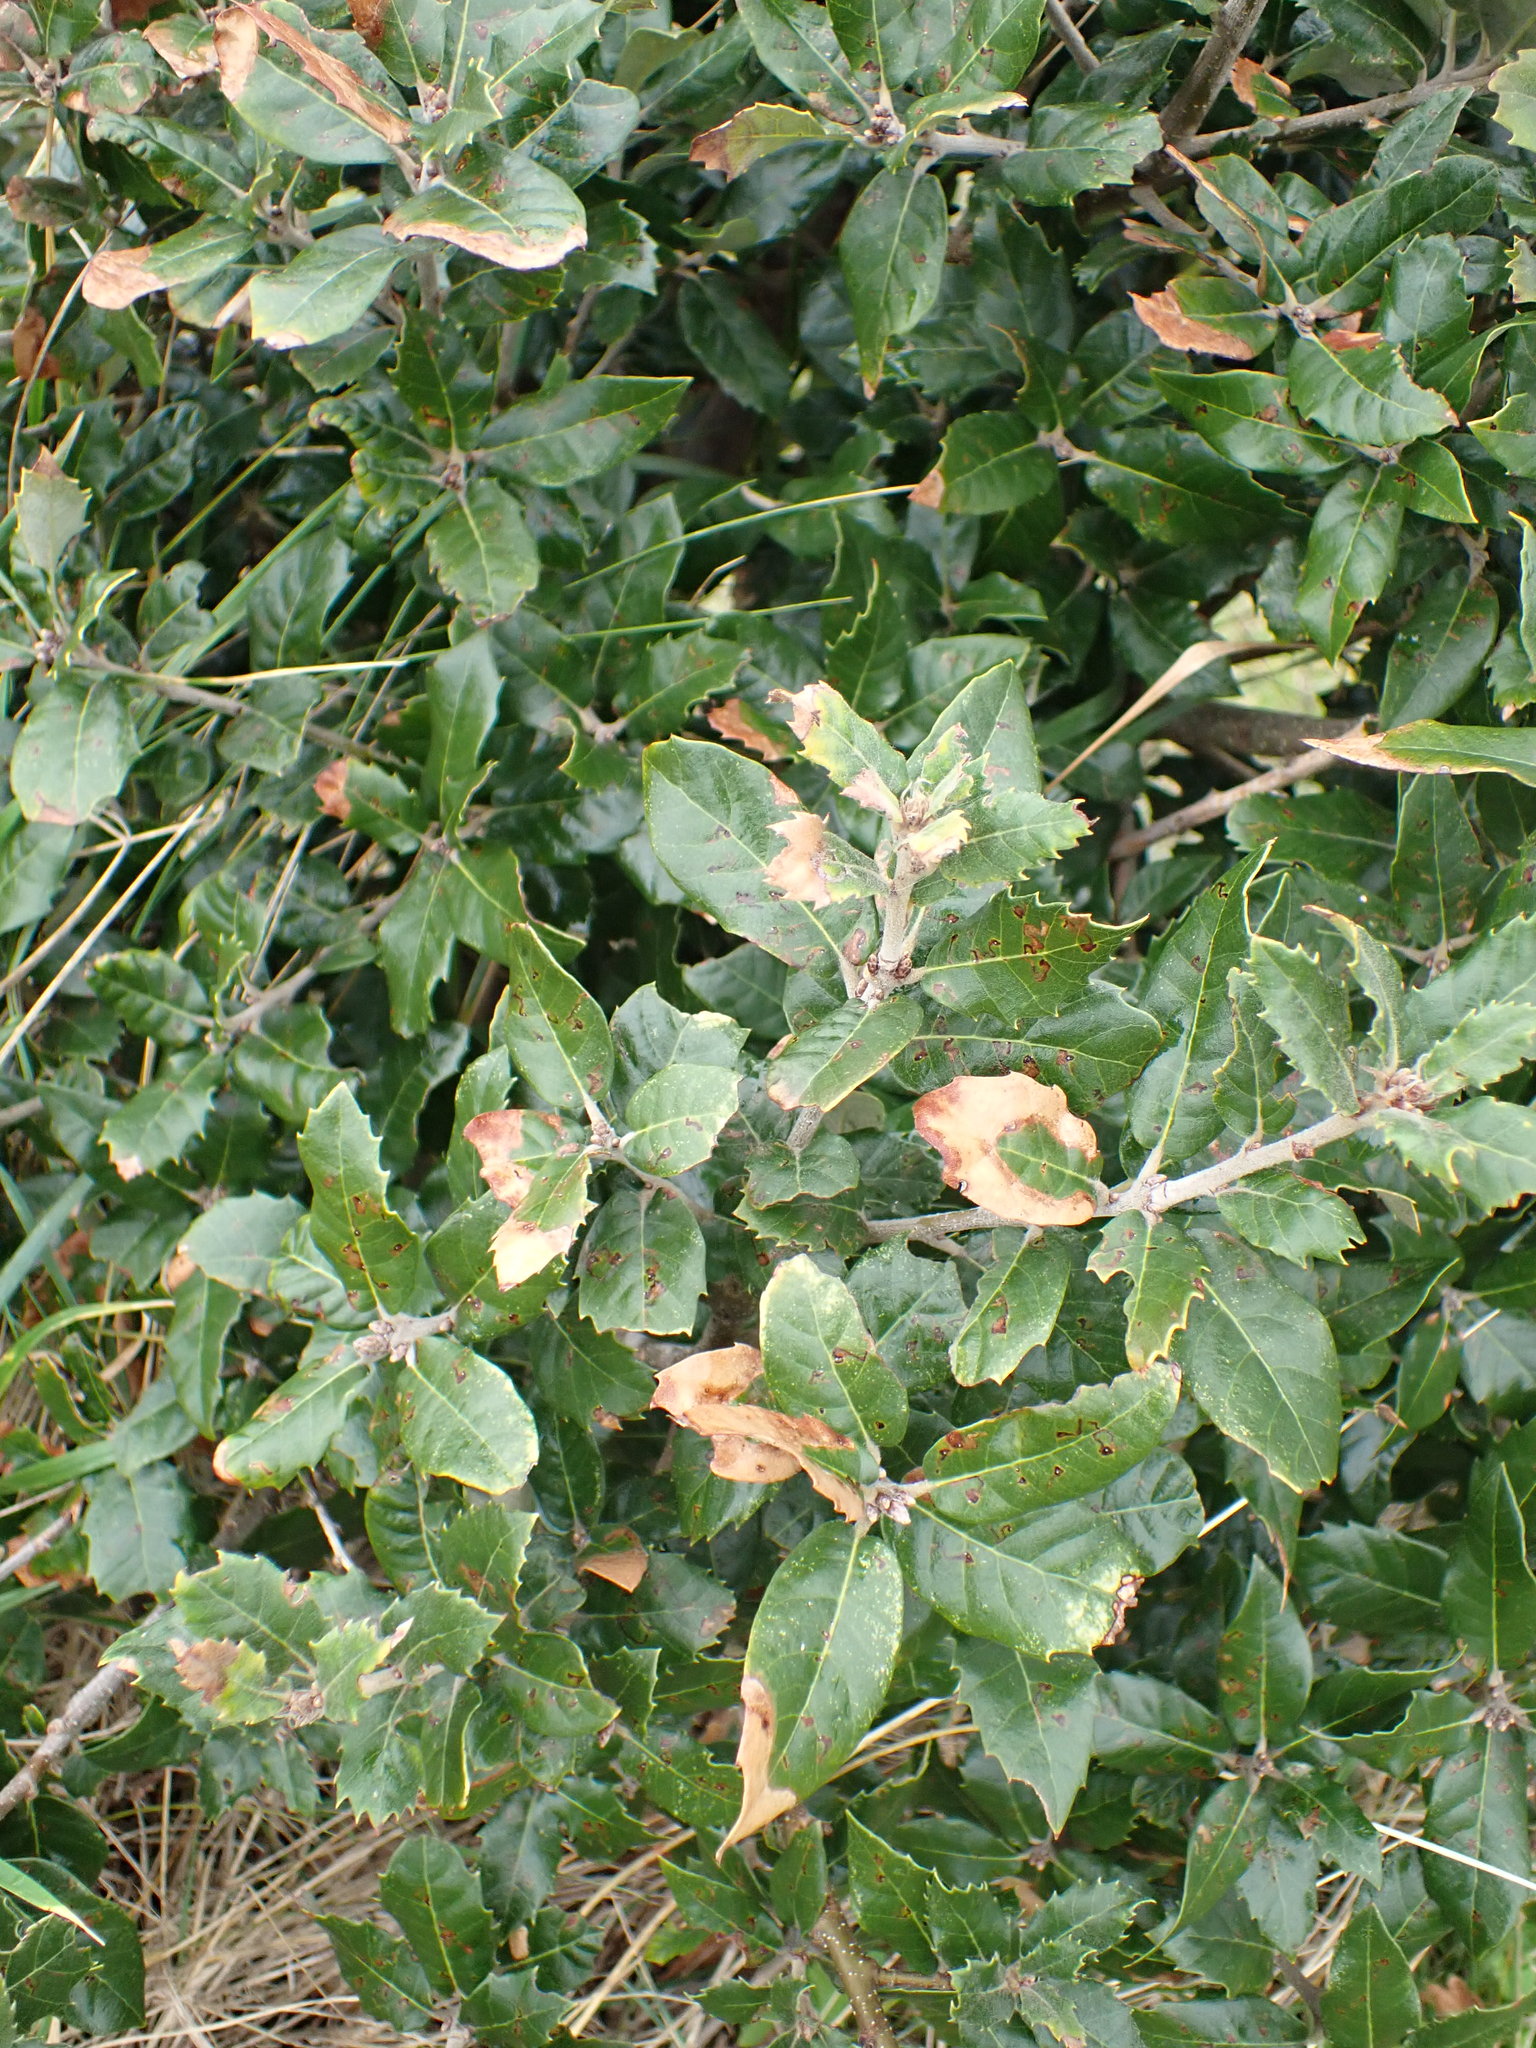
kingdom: Plantae
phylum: Tracheophyta
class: Magnoliopsida
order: Fagales
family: Fagaceae
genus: Quercus
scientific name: Quercus ilex
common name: Evergreen oak
